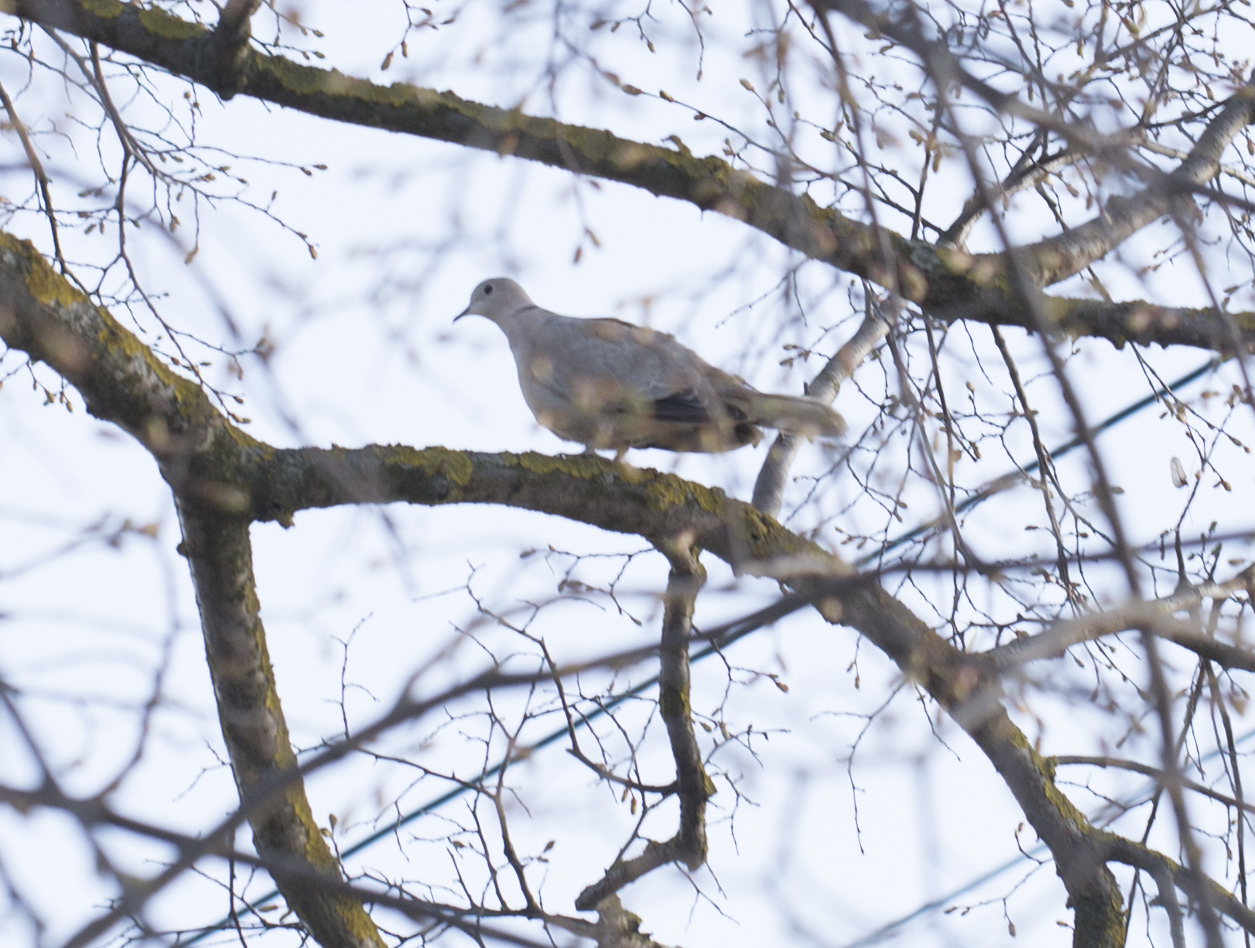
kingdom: Animalia
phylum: Chordata
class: Aves
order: Columbiformes
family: Columbidae
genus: Streptopelia
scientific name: Streptopelia decaocto
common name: Eurasian collared dove
